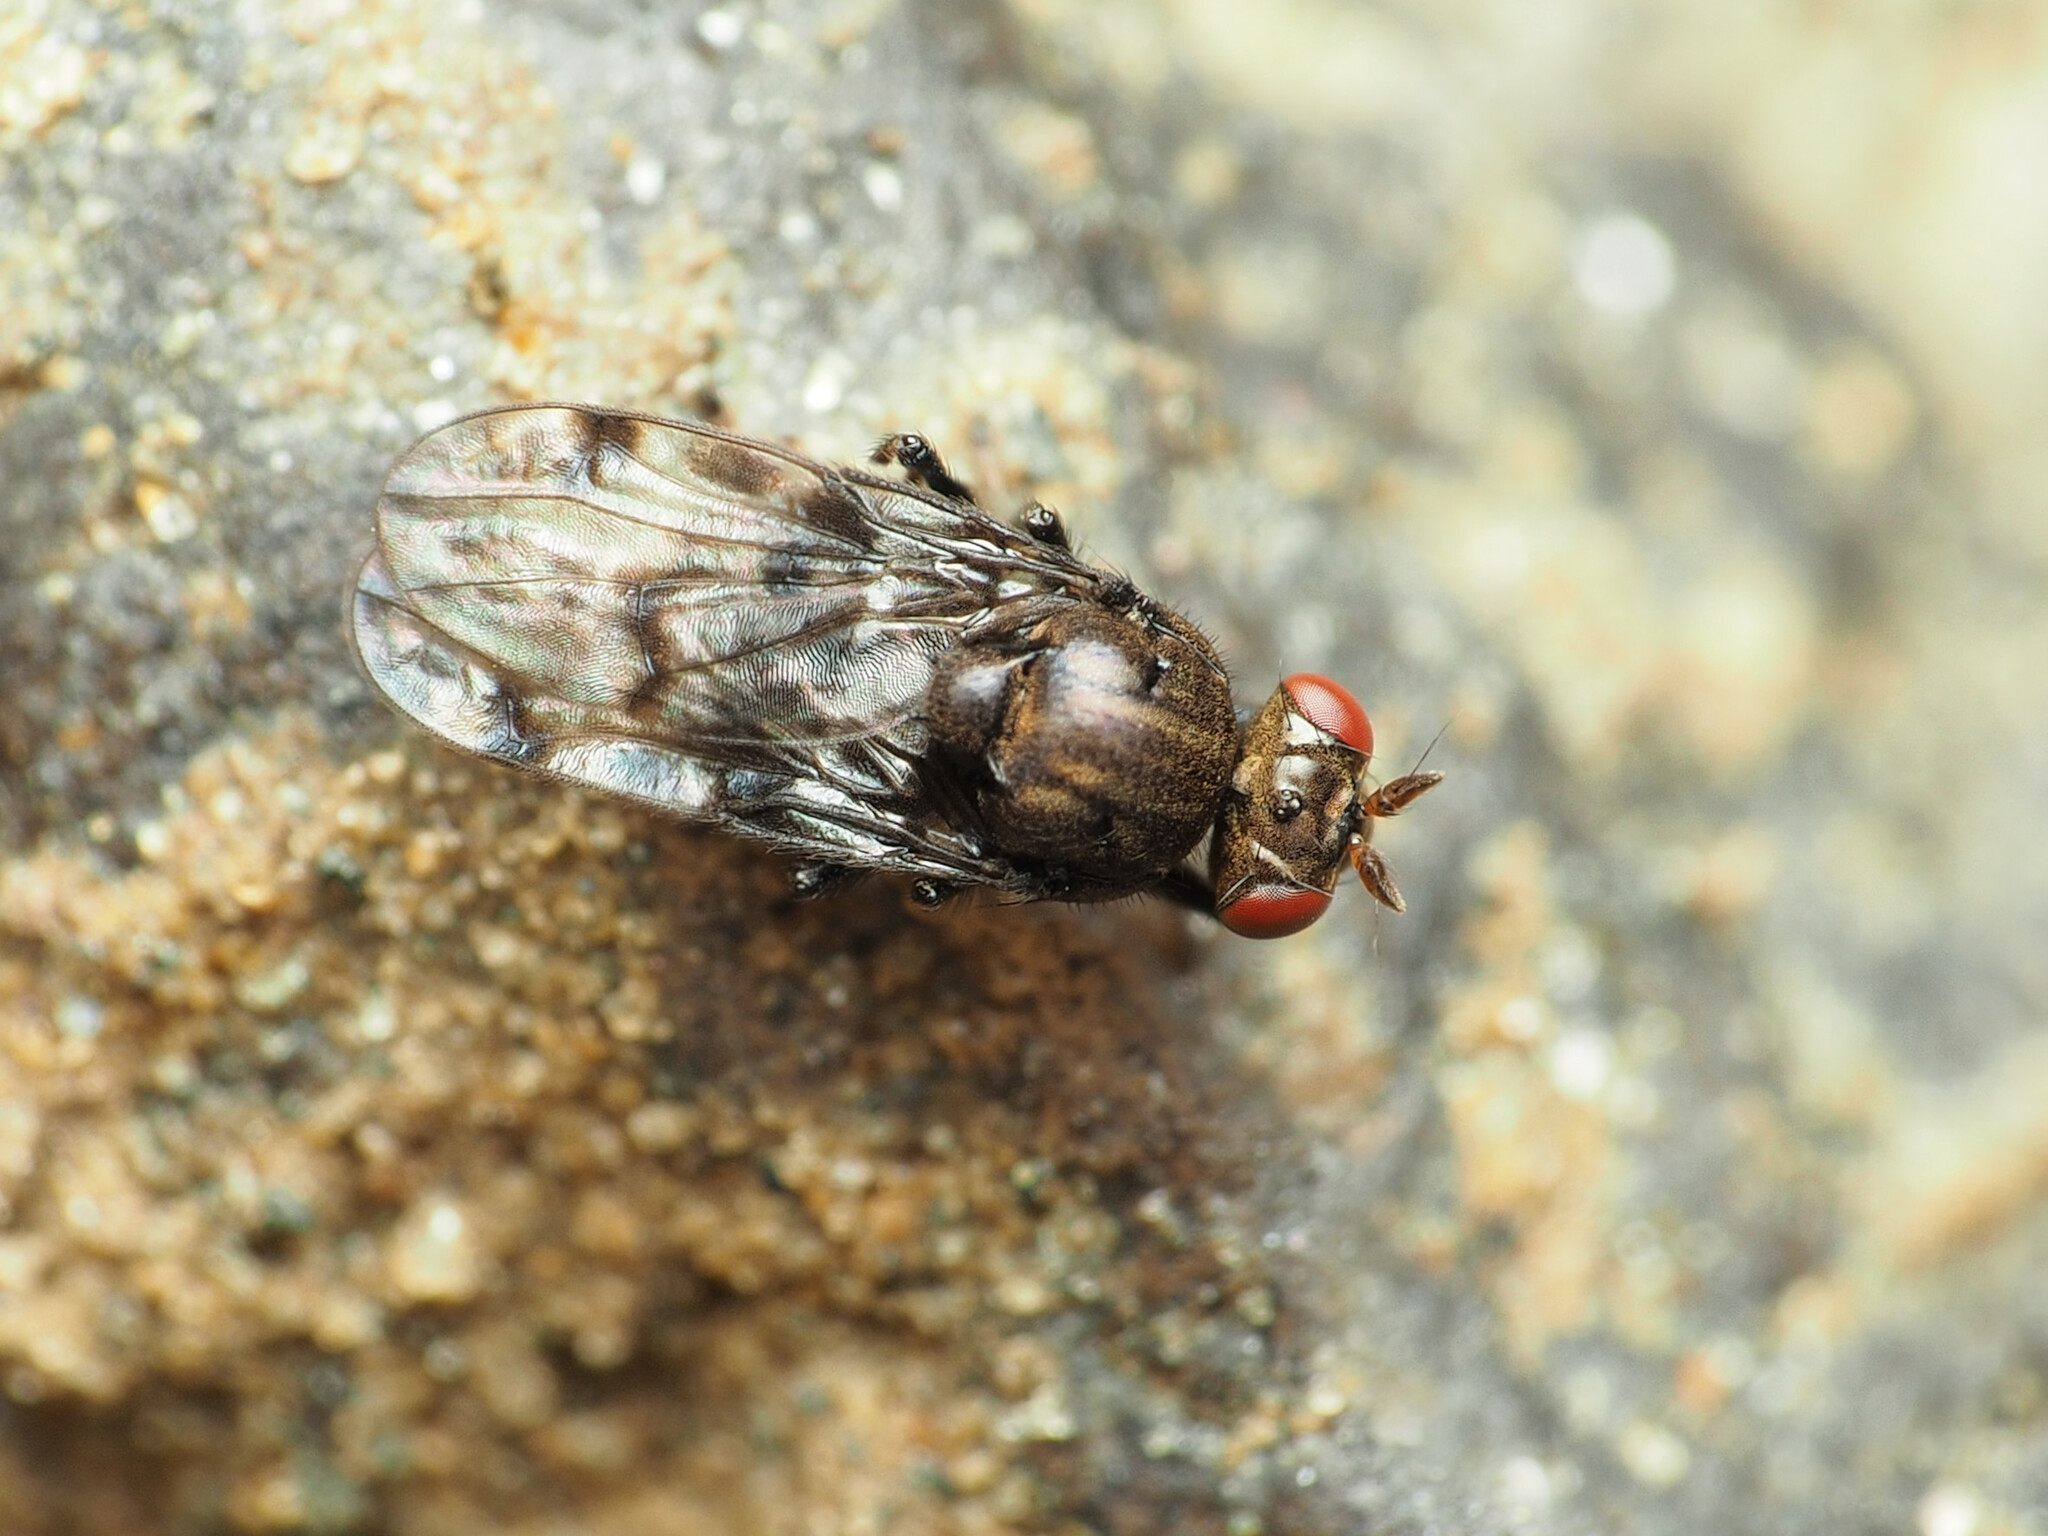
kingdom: Animalia
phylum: Arthropoda
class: Insecta
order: Diptera
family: Ephydridae
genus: Gastrops
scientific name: Gastrops nebulosus
